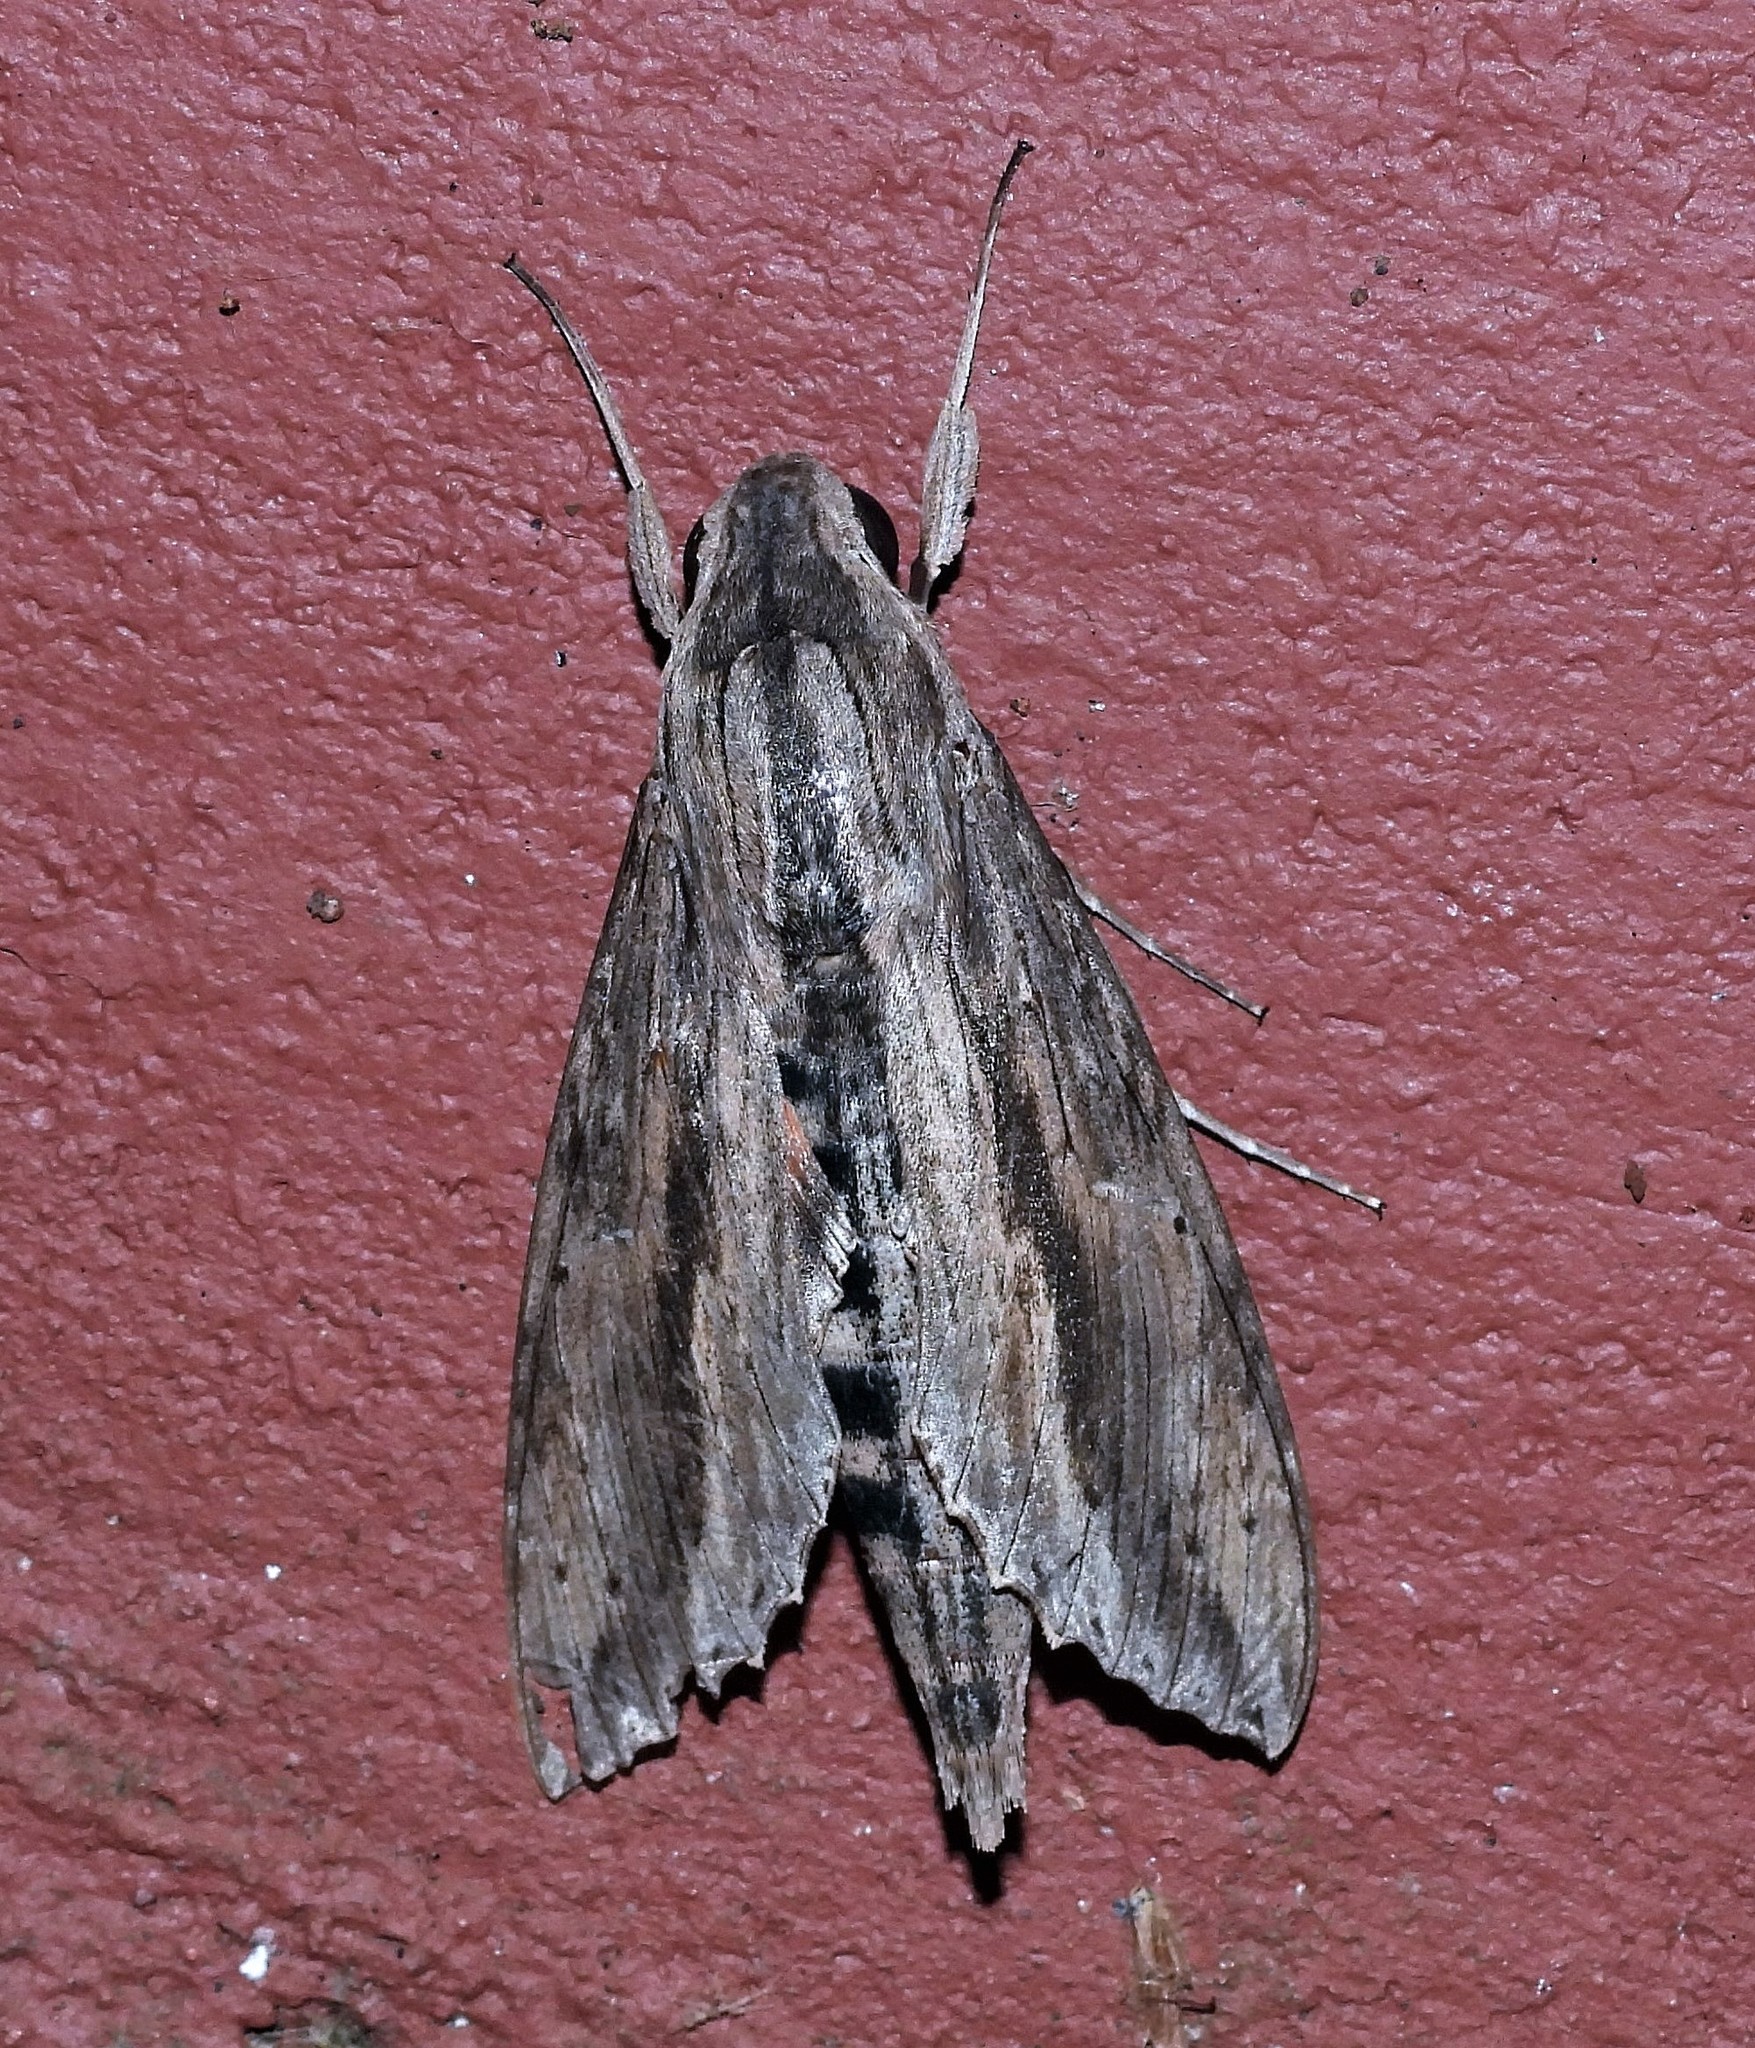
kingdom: Animalia
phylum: Arthropoda
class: Insecta
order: Lepidoptera
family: Sphingidae
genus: Erinnyis
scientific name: Erinnyis ello
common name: Ello sphinx
